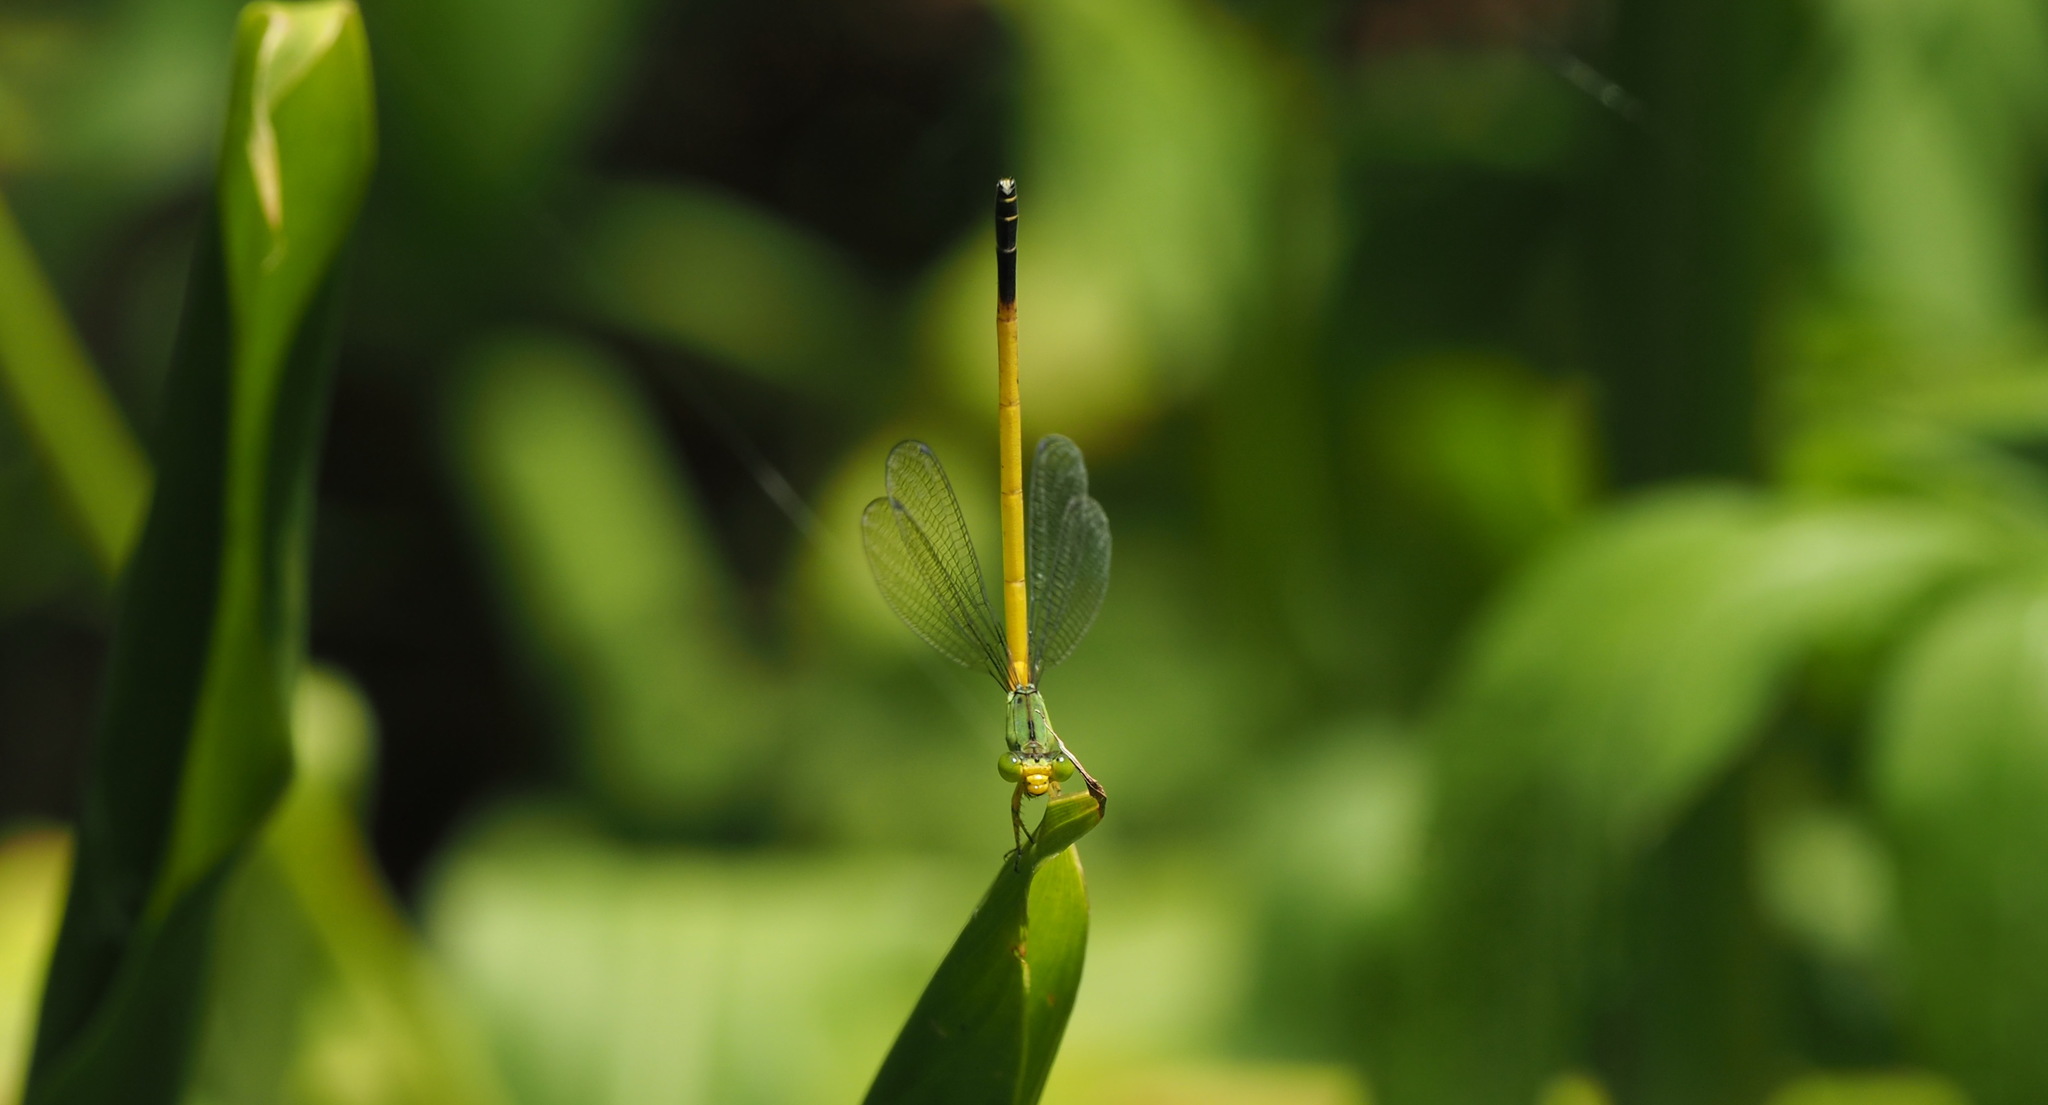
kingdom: Animalia
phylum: Arthropoda
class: Insecta
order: Odonata
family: Coenagrionidae
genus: Ceriagrion
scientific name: Ceriagrion fallax
